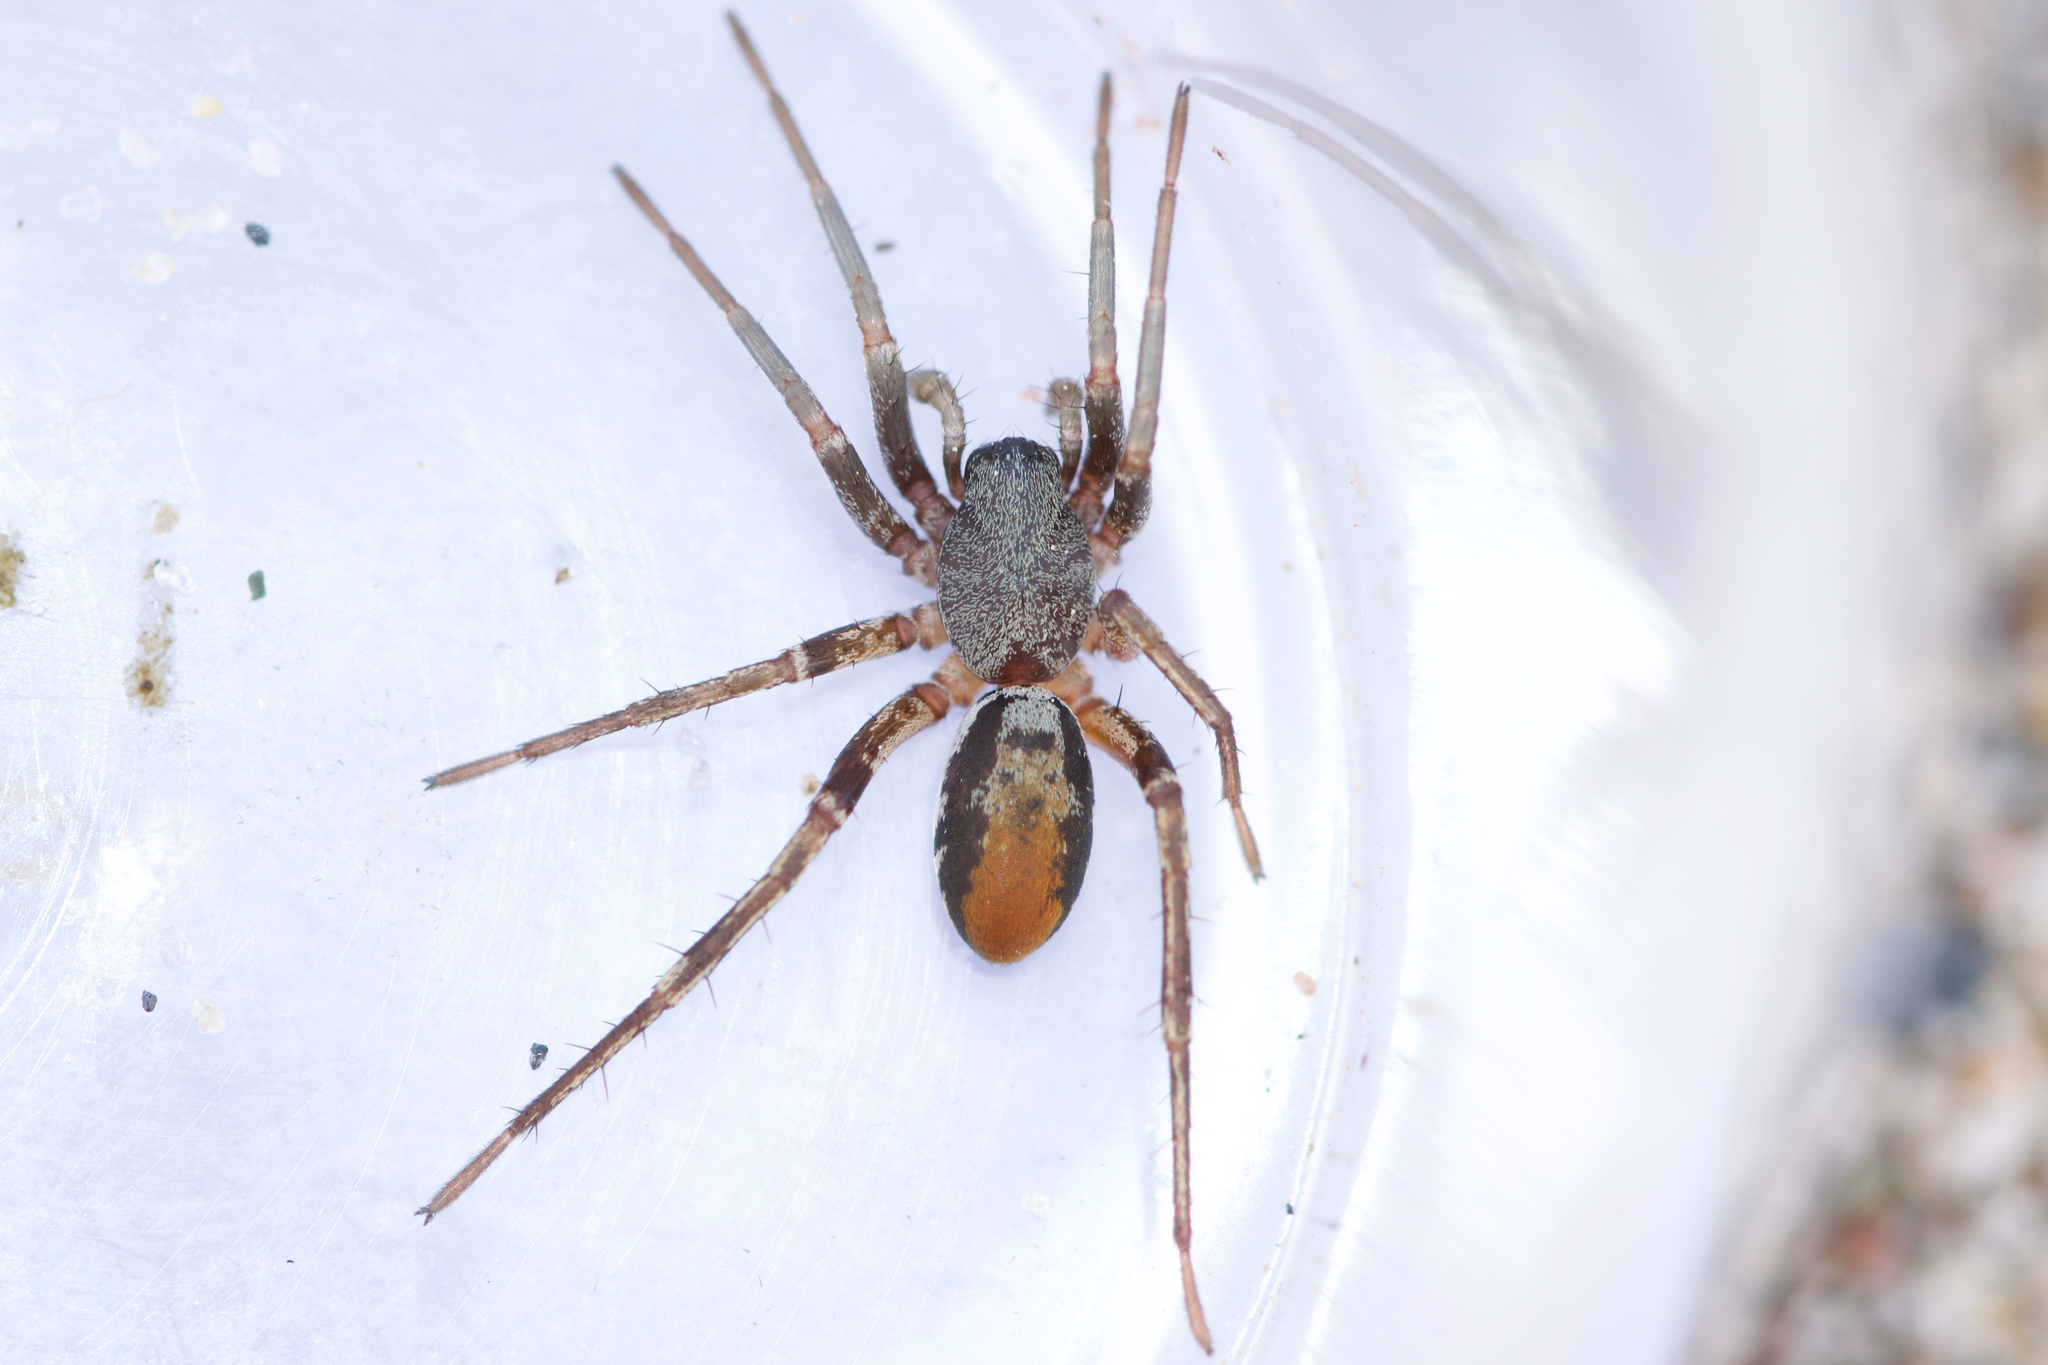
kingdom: Animalia
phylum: Arthropoda
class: Arachnida
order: Araneae
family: Corinnidae
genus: Castianeira
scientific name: Castianeira descripta
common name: Red-spotted ant-mimic sac spider
